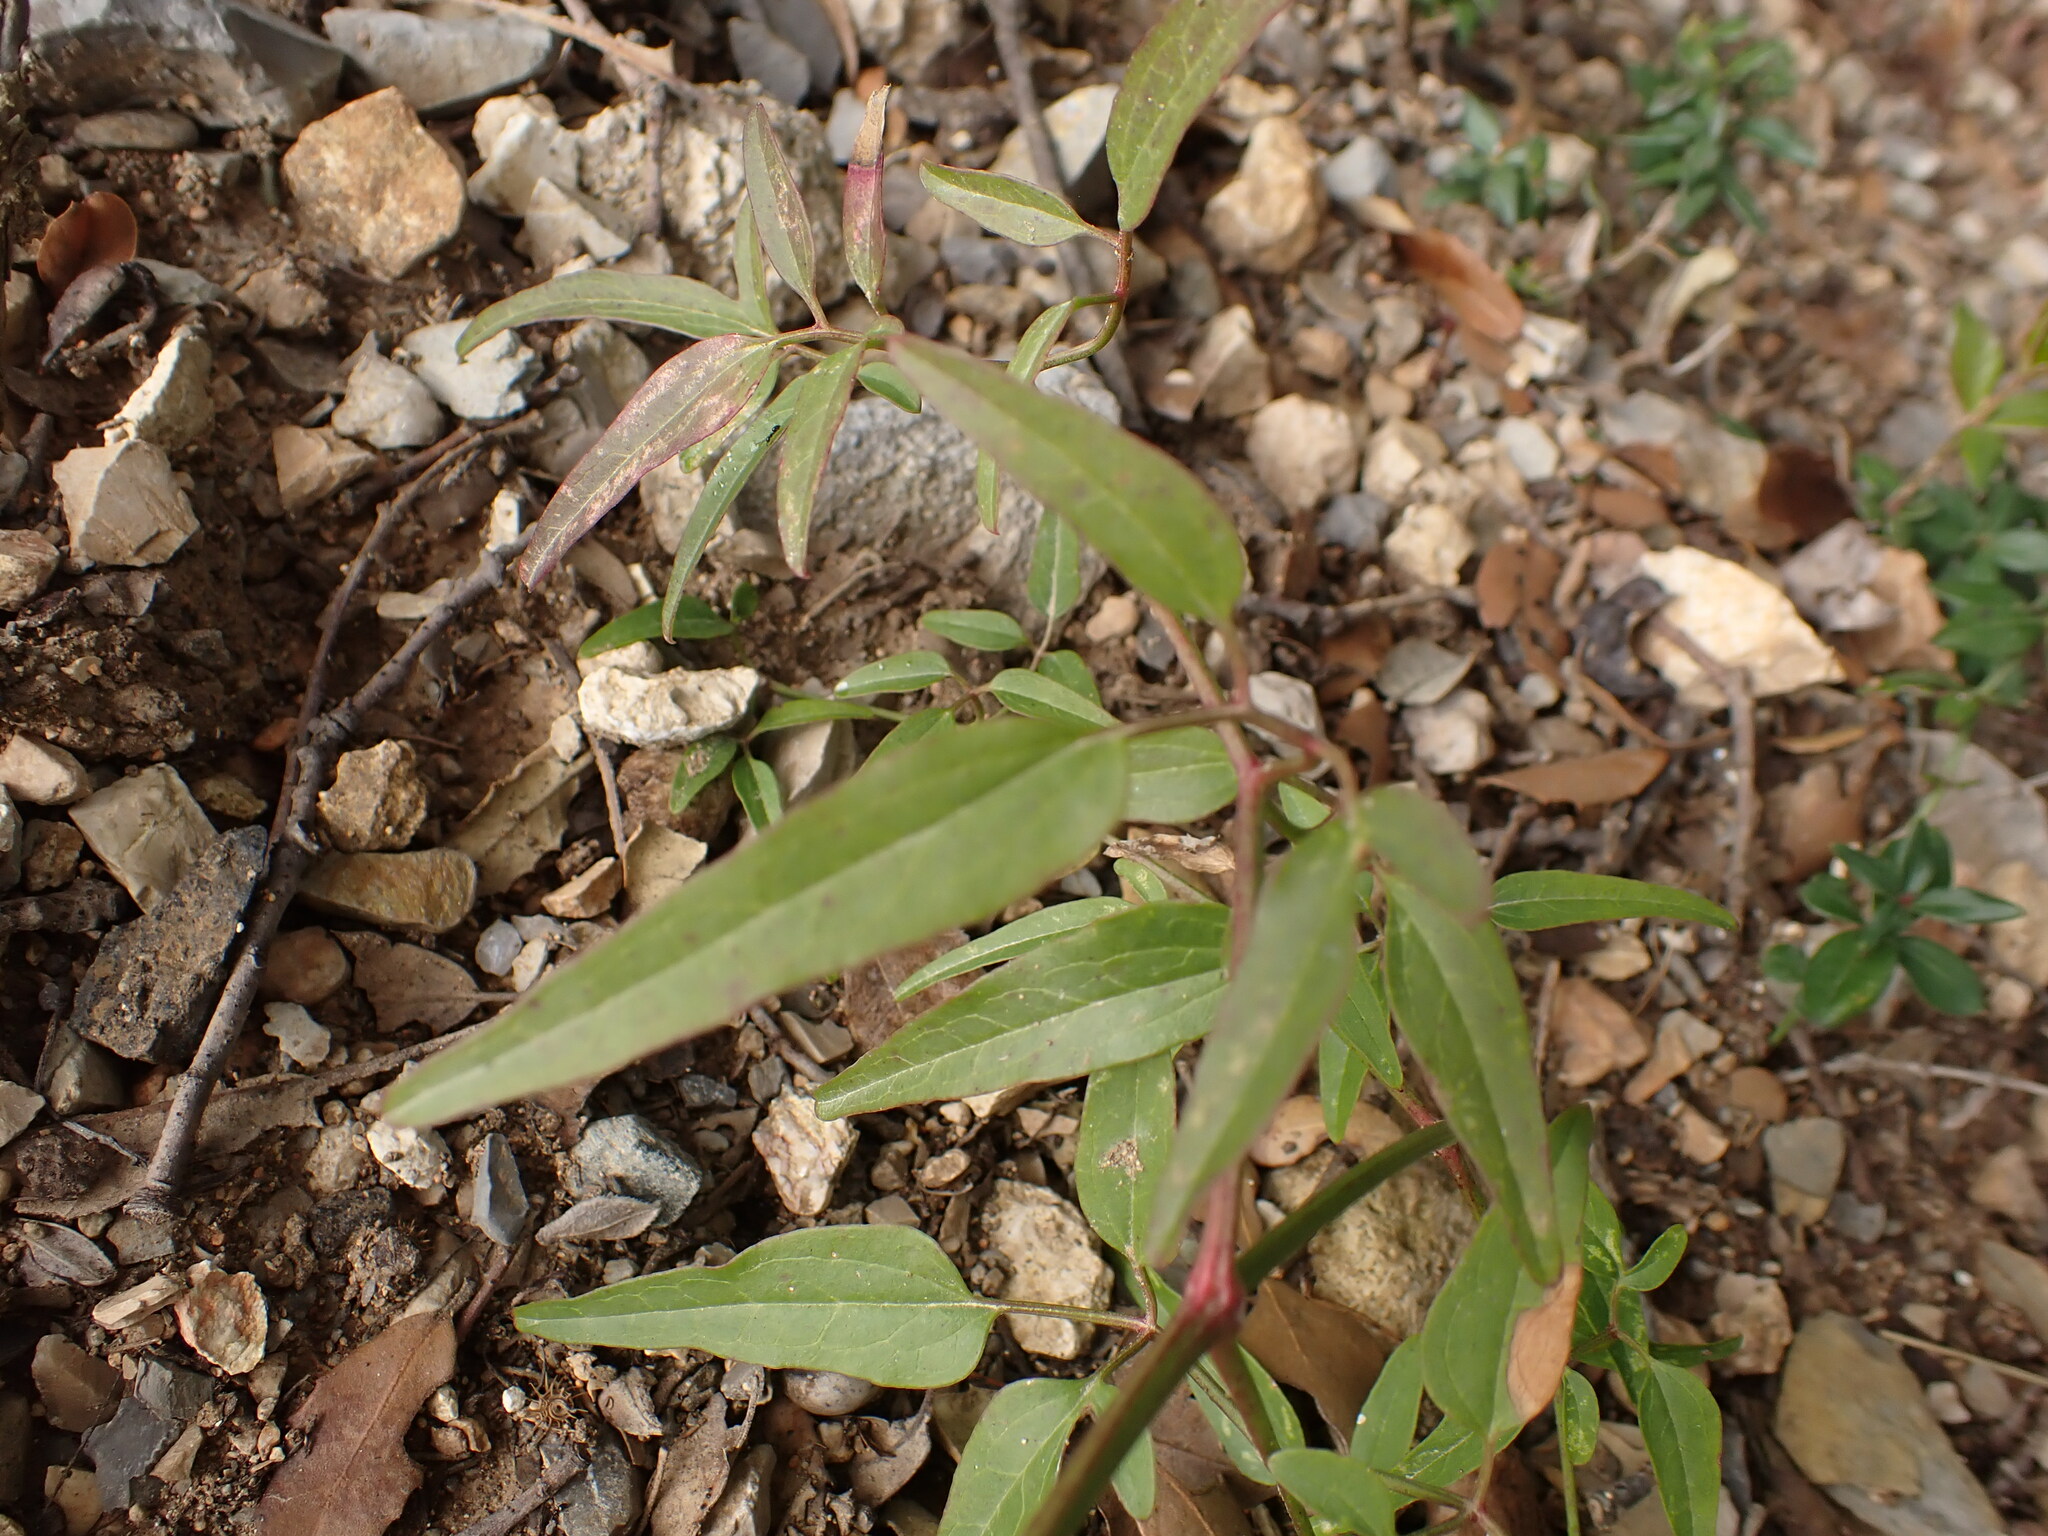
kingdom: Plantae
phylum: Tracheophyta
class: Magnoliopsida
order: Ranunculales
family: Ranunculaceae
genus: Clematis
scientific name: Clematis flammula
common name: Virgin's-bower
